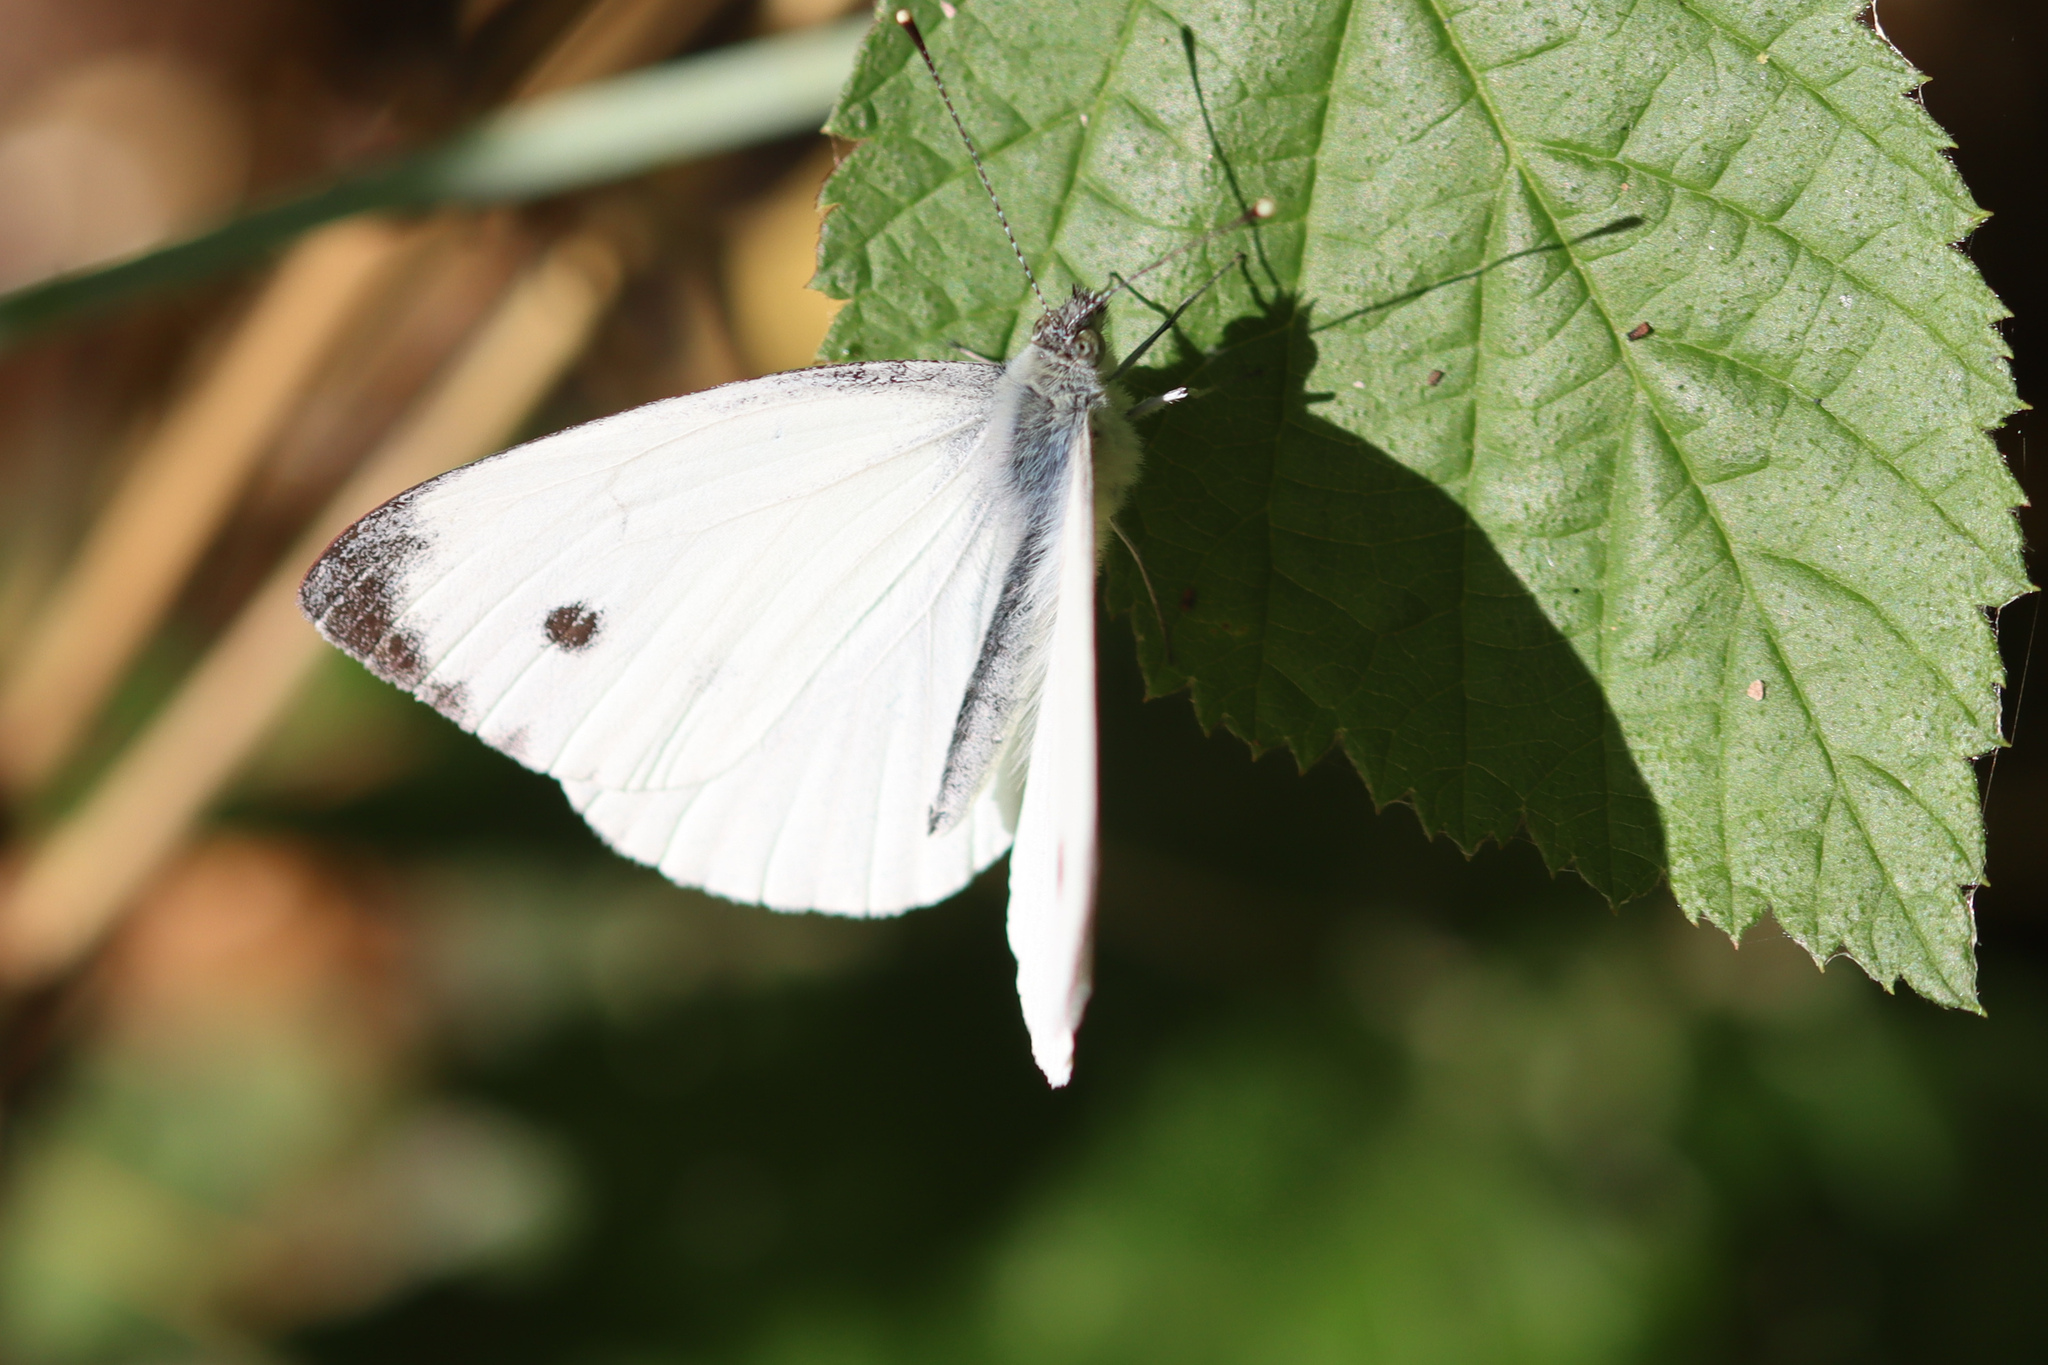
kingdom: Animalia
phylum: Arthropoda
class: Insecta
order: Lepidoptera
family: Pieridae
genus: Pieris
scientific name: Pieris napi
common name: Green-veined white
